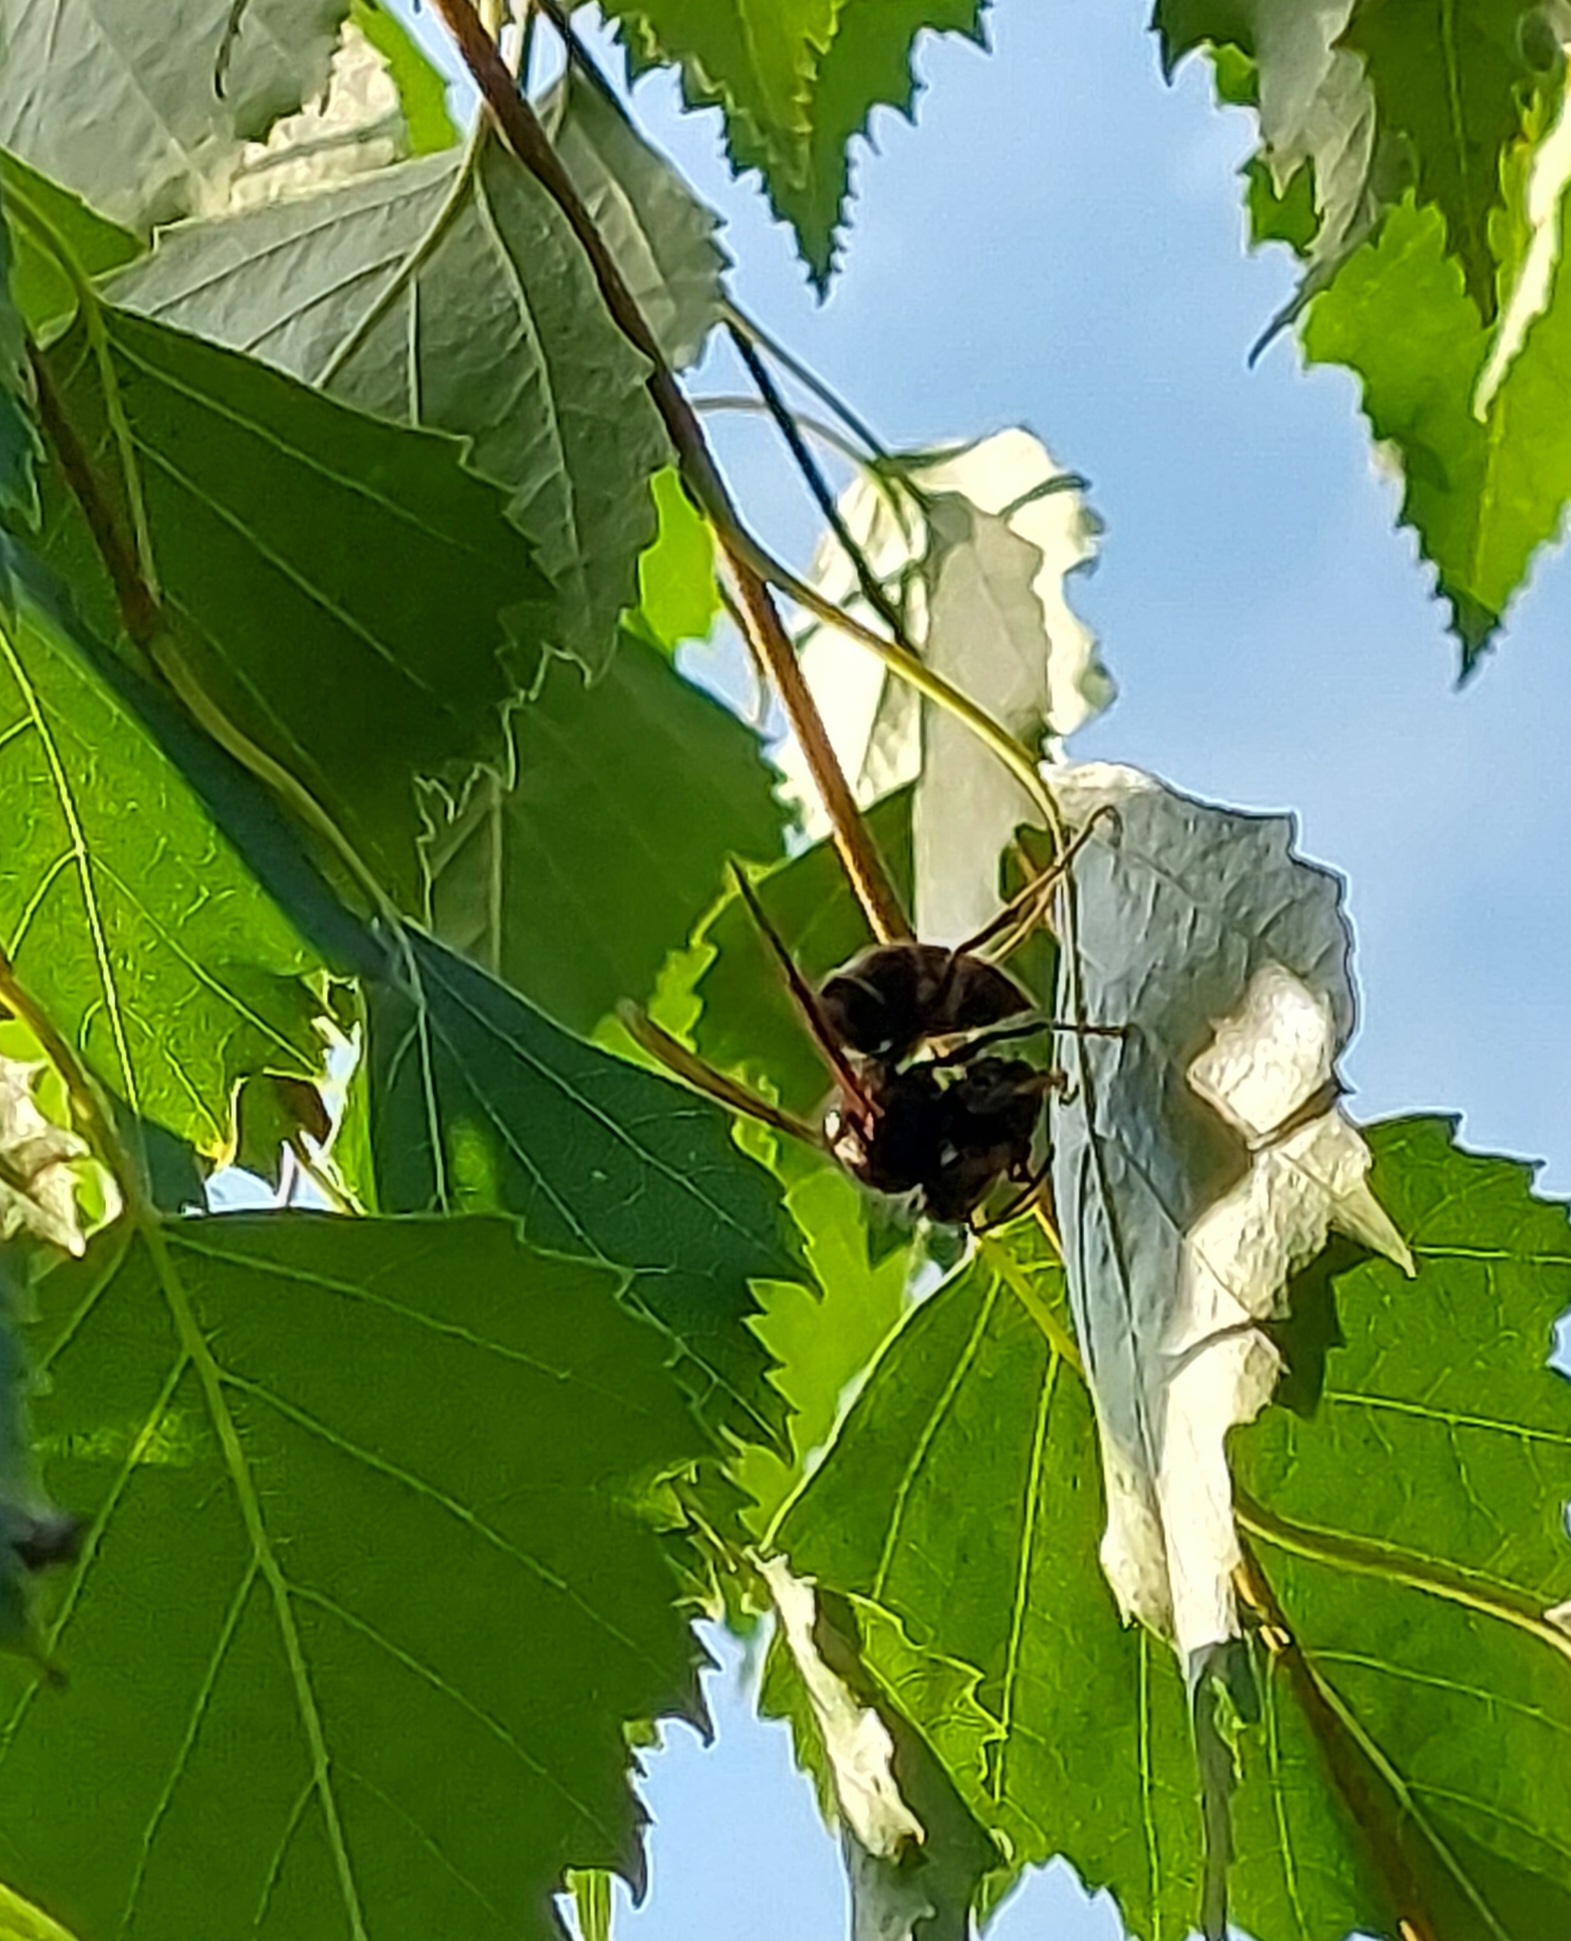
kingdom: Animalia
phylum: Arthropoda
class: Insecta
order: Hymenoptera
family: Vespidae
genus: Vespa
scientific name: Vespa velutina
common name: Asian hornet
